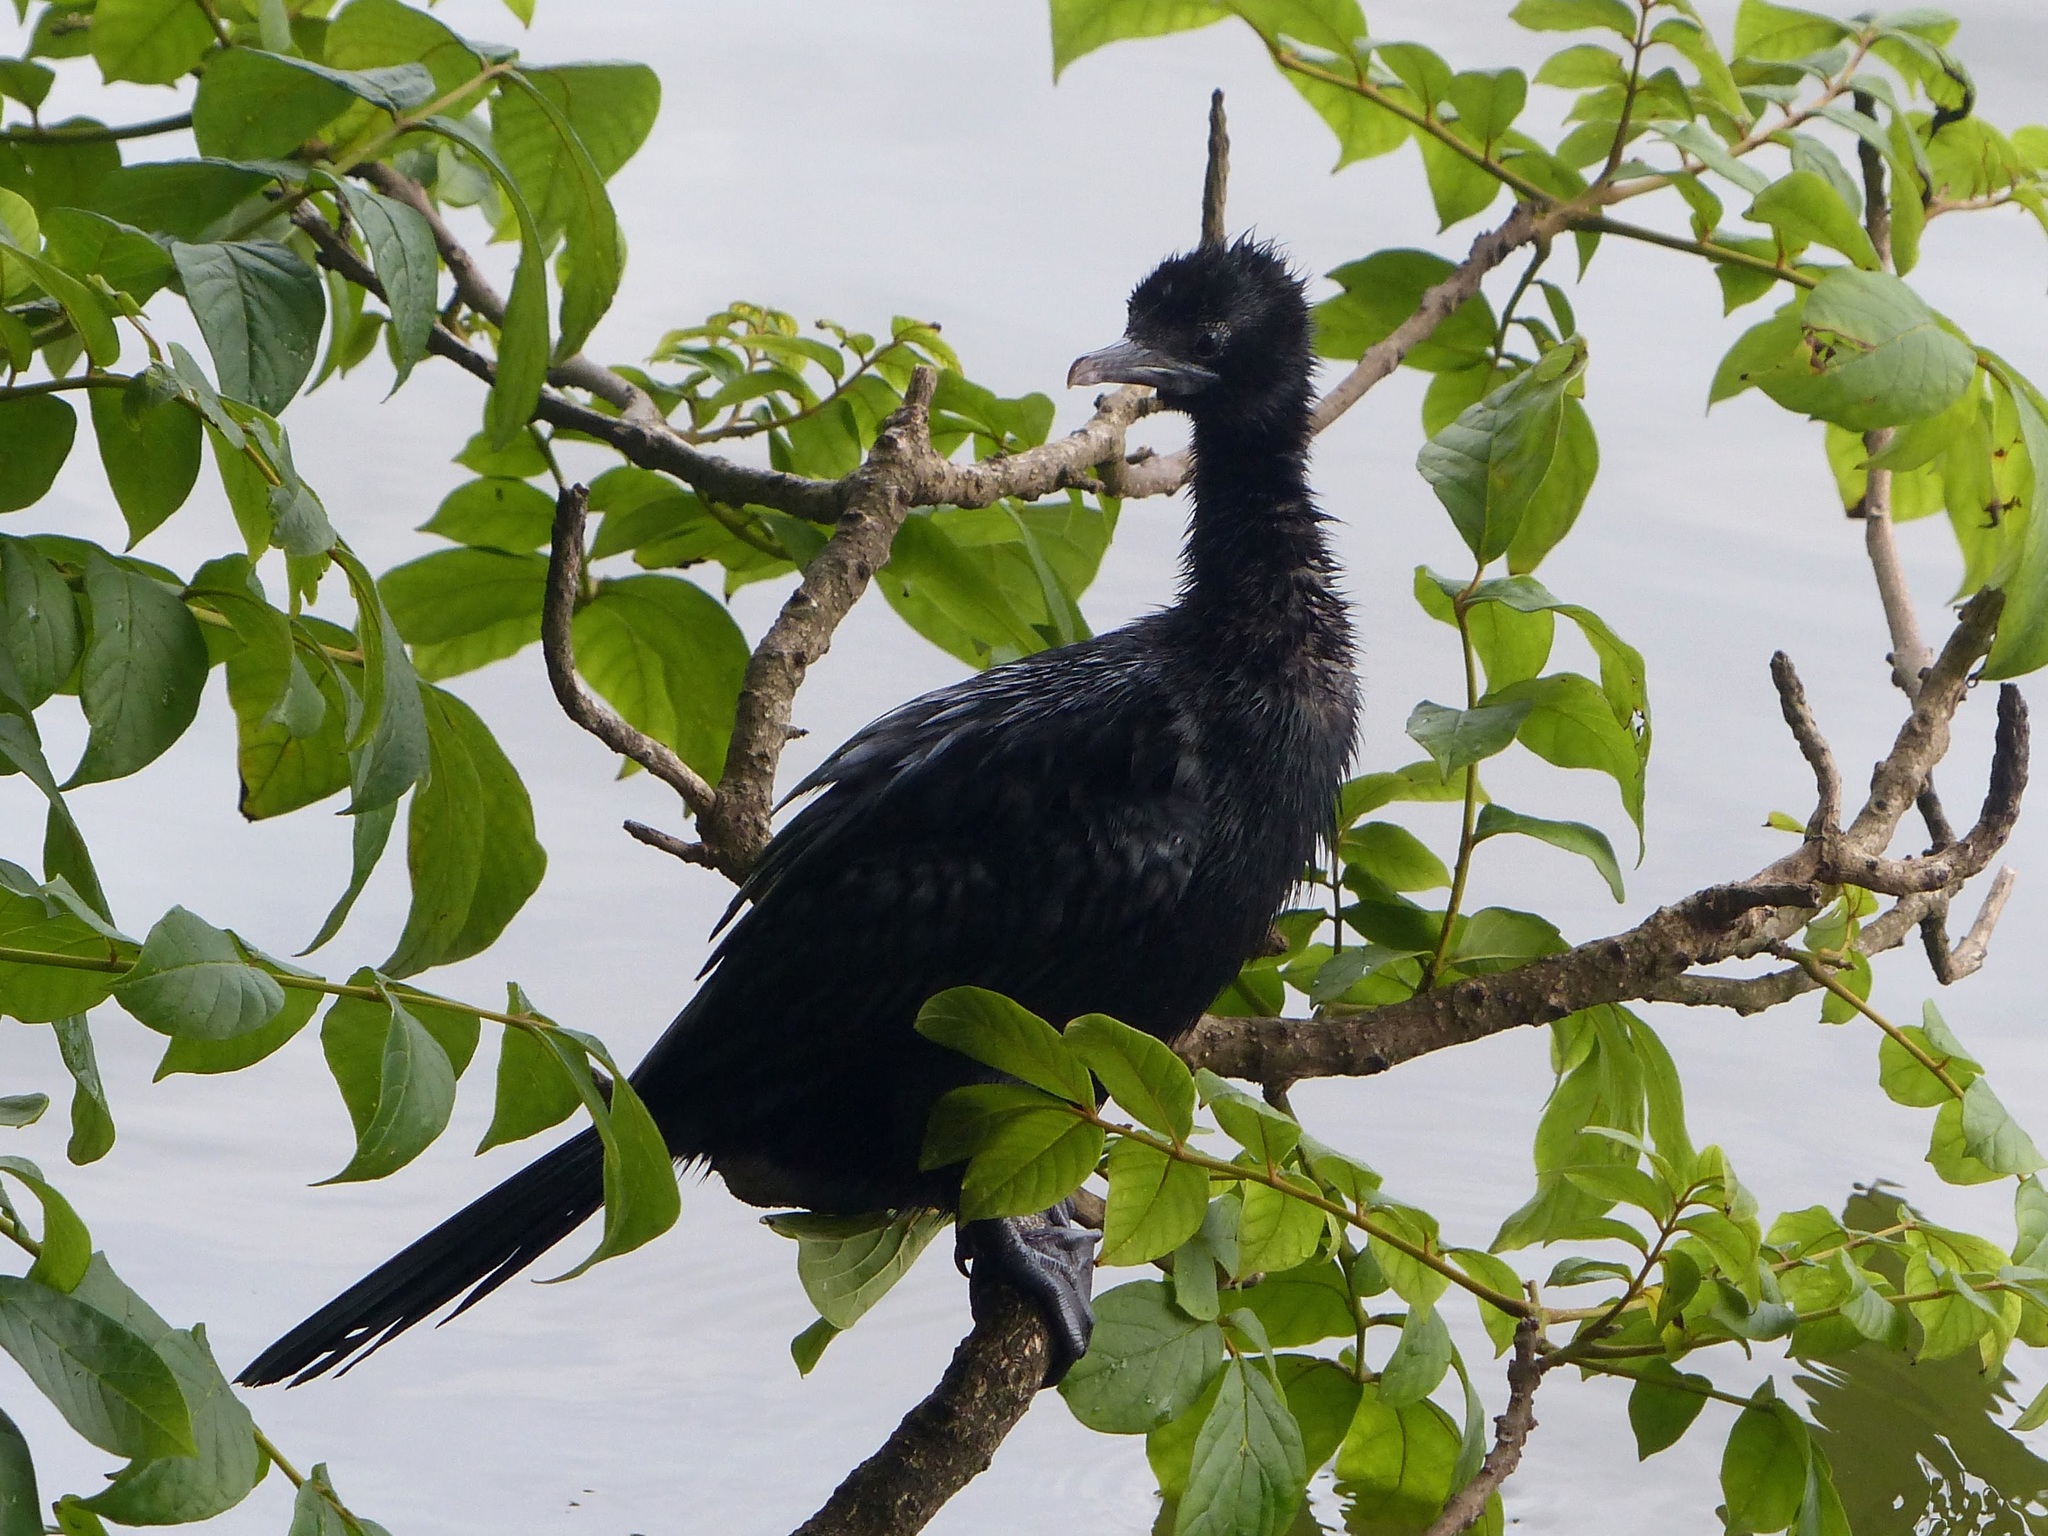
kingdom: Animalia
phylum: Chordata
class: Aves
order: Suliformes
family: Phalacrocoracidae
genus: Microcarbo
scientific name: Microcarbo niger
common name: Little cormorant
